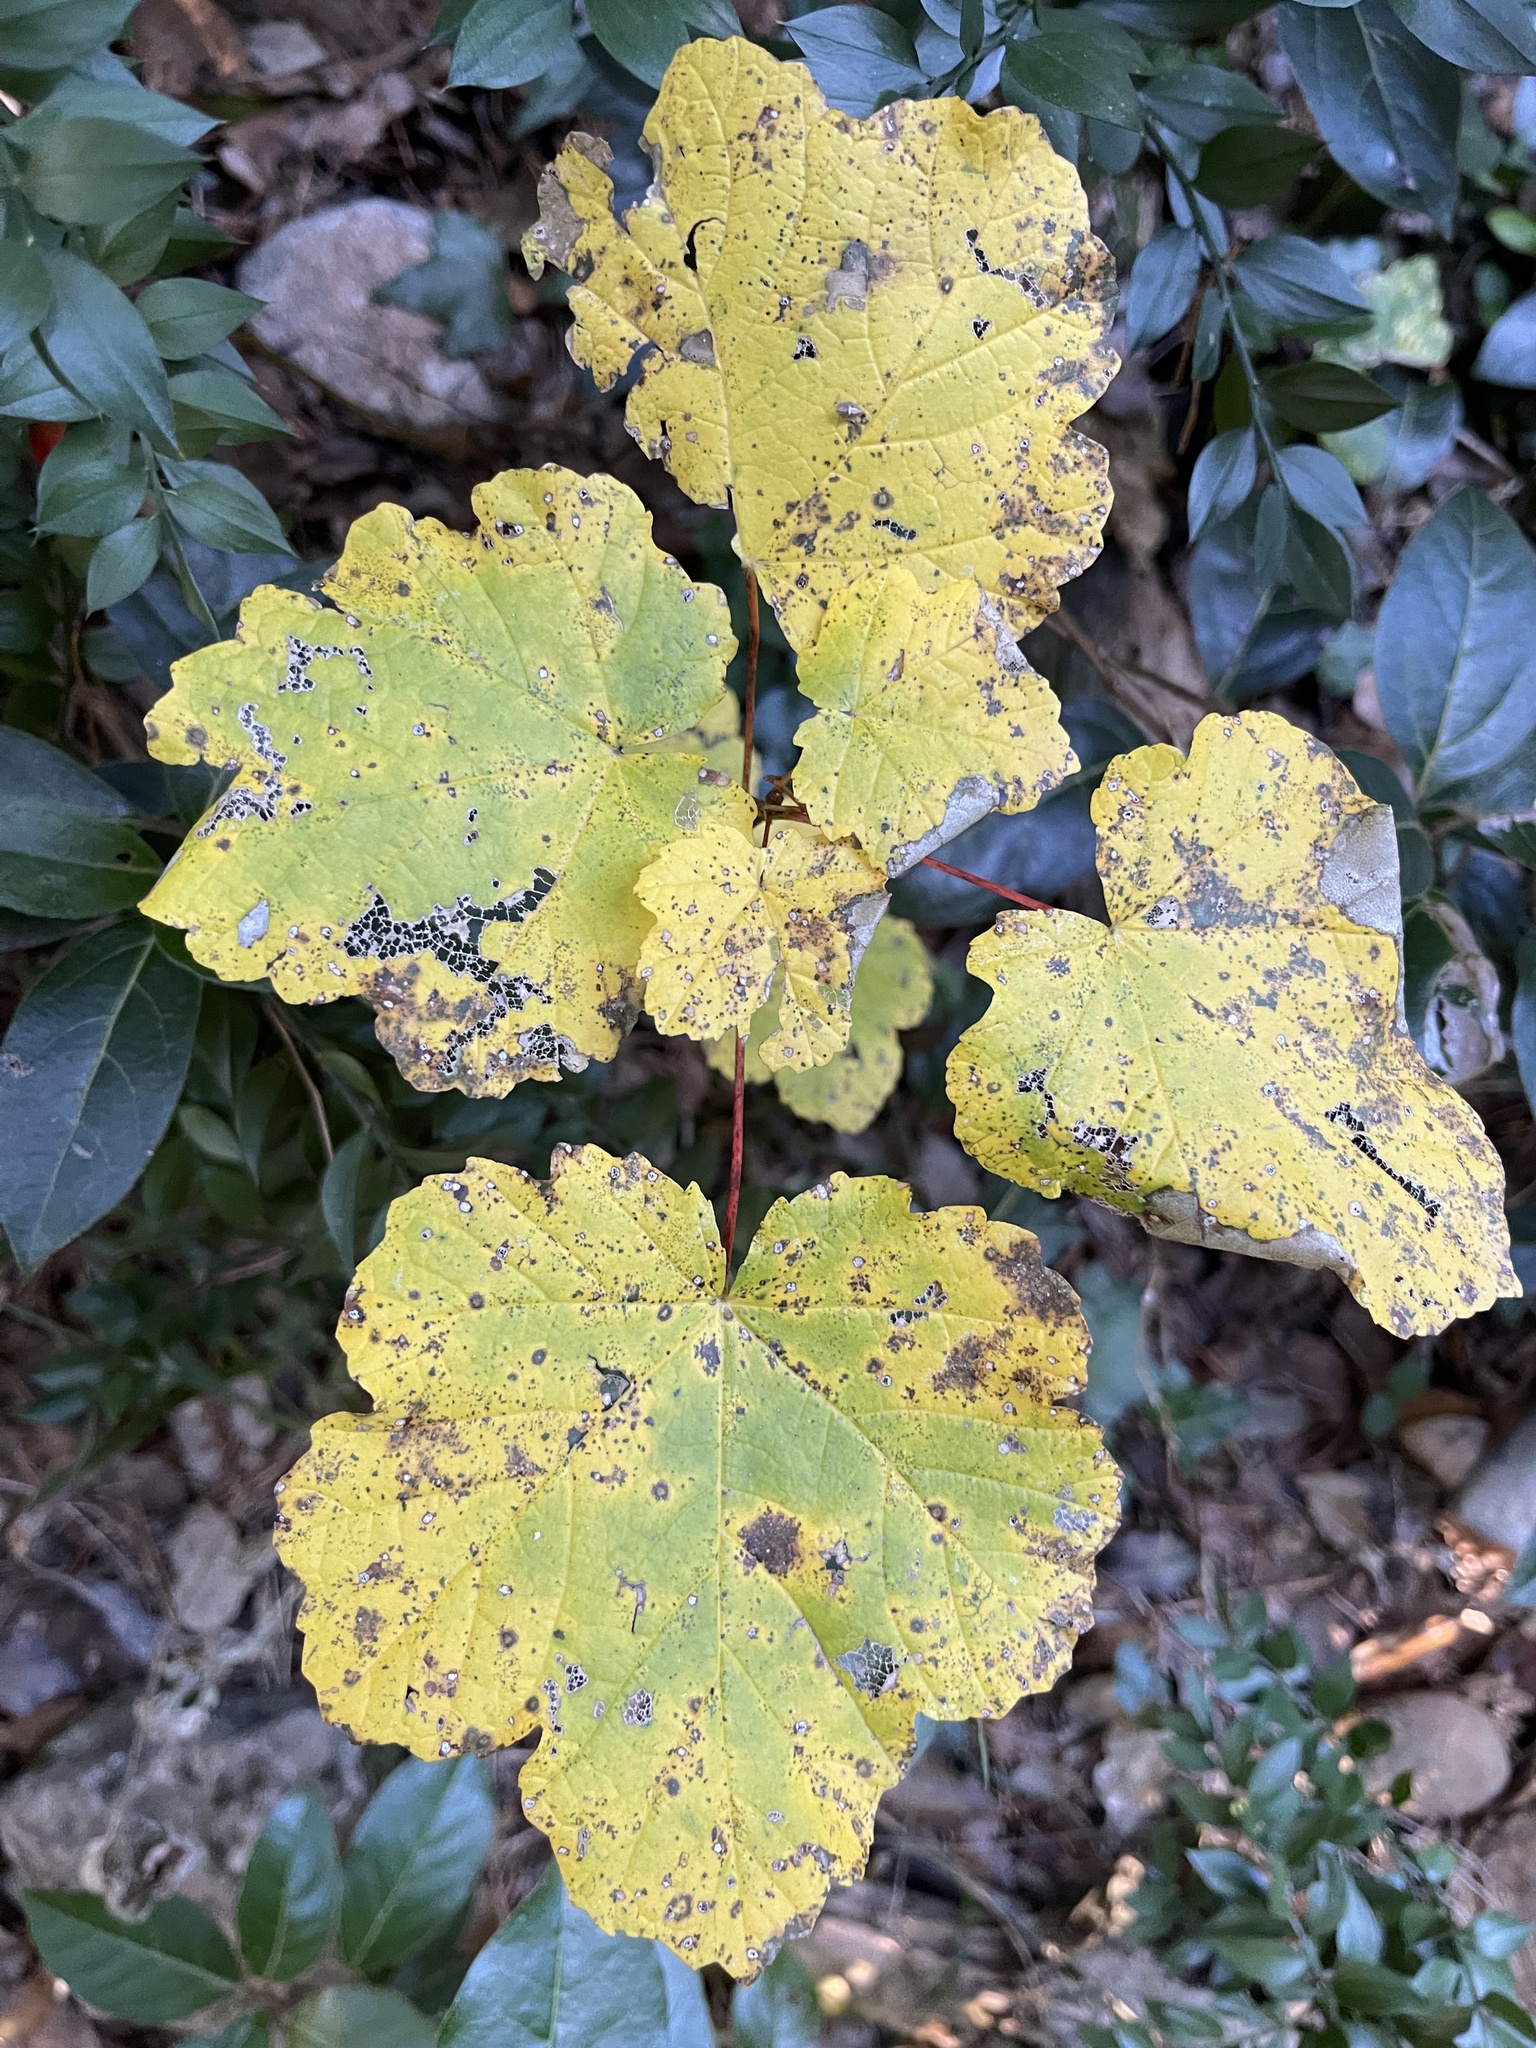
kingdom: Plantae
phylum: Tracheophyta
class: Magnoliopsida
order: Sapindales
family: Sapindaceae
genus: Acer
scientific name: Acer opalus
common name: Italian maple
